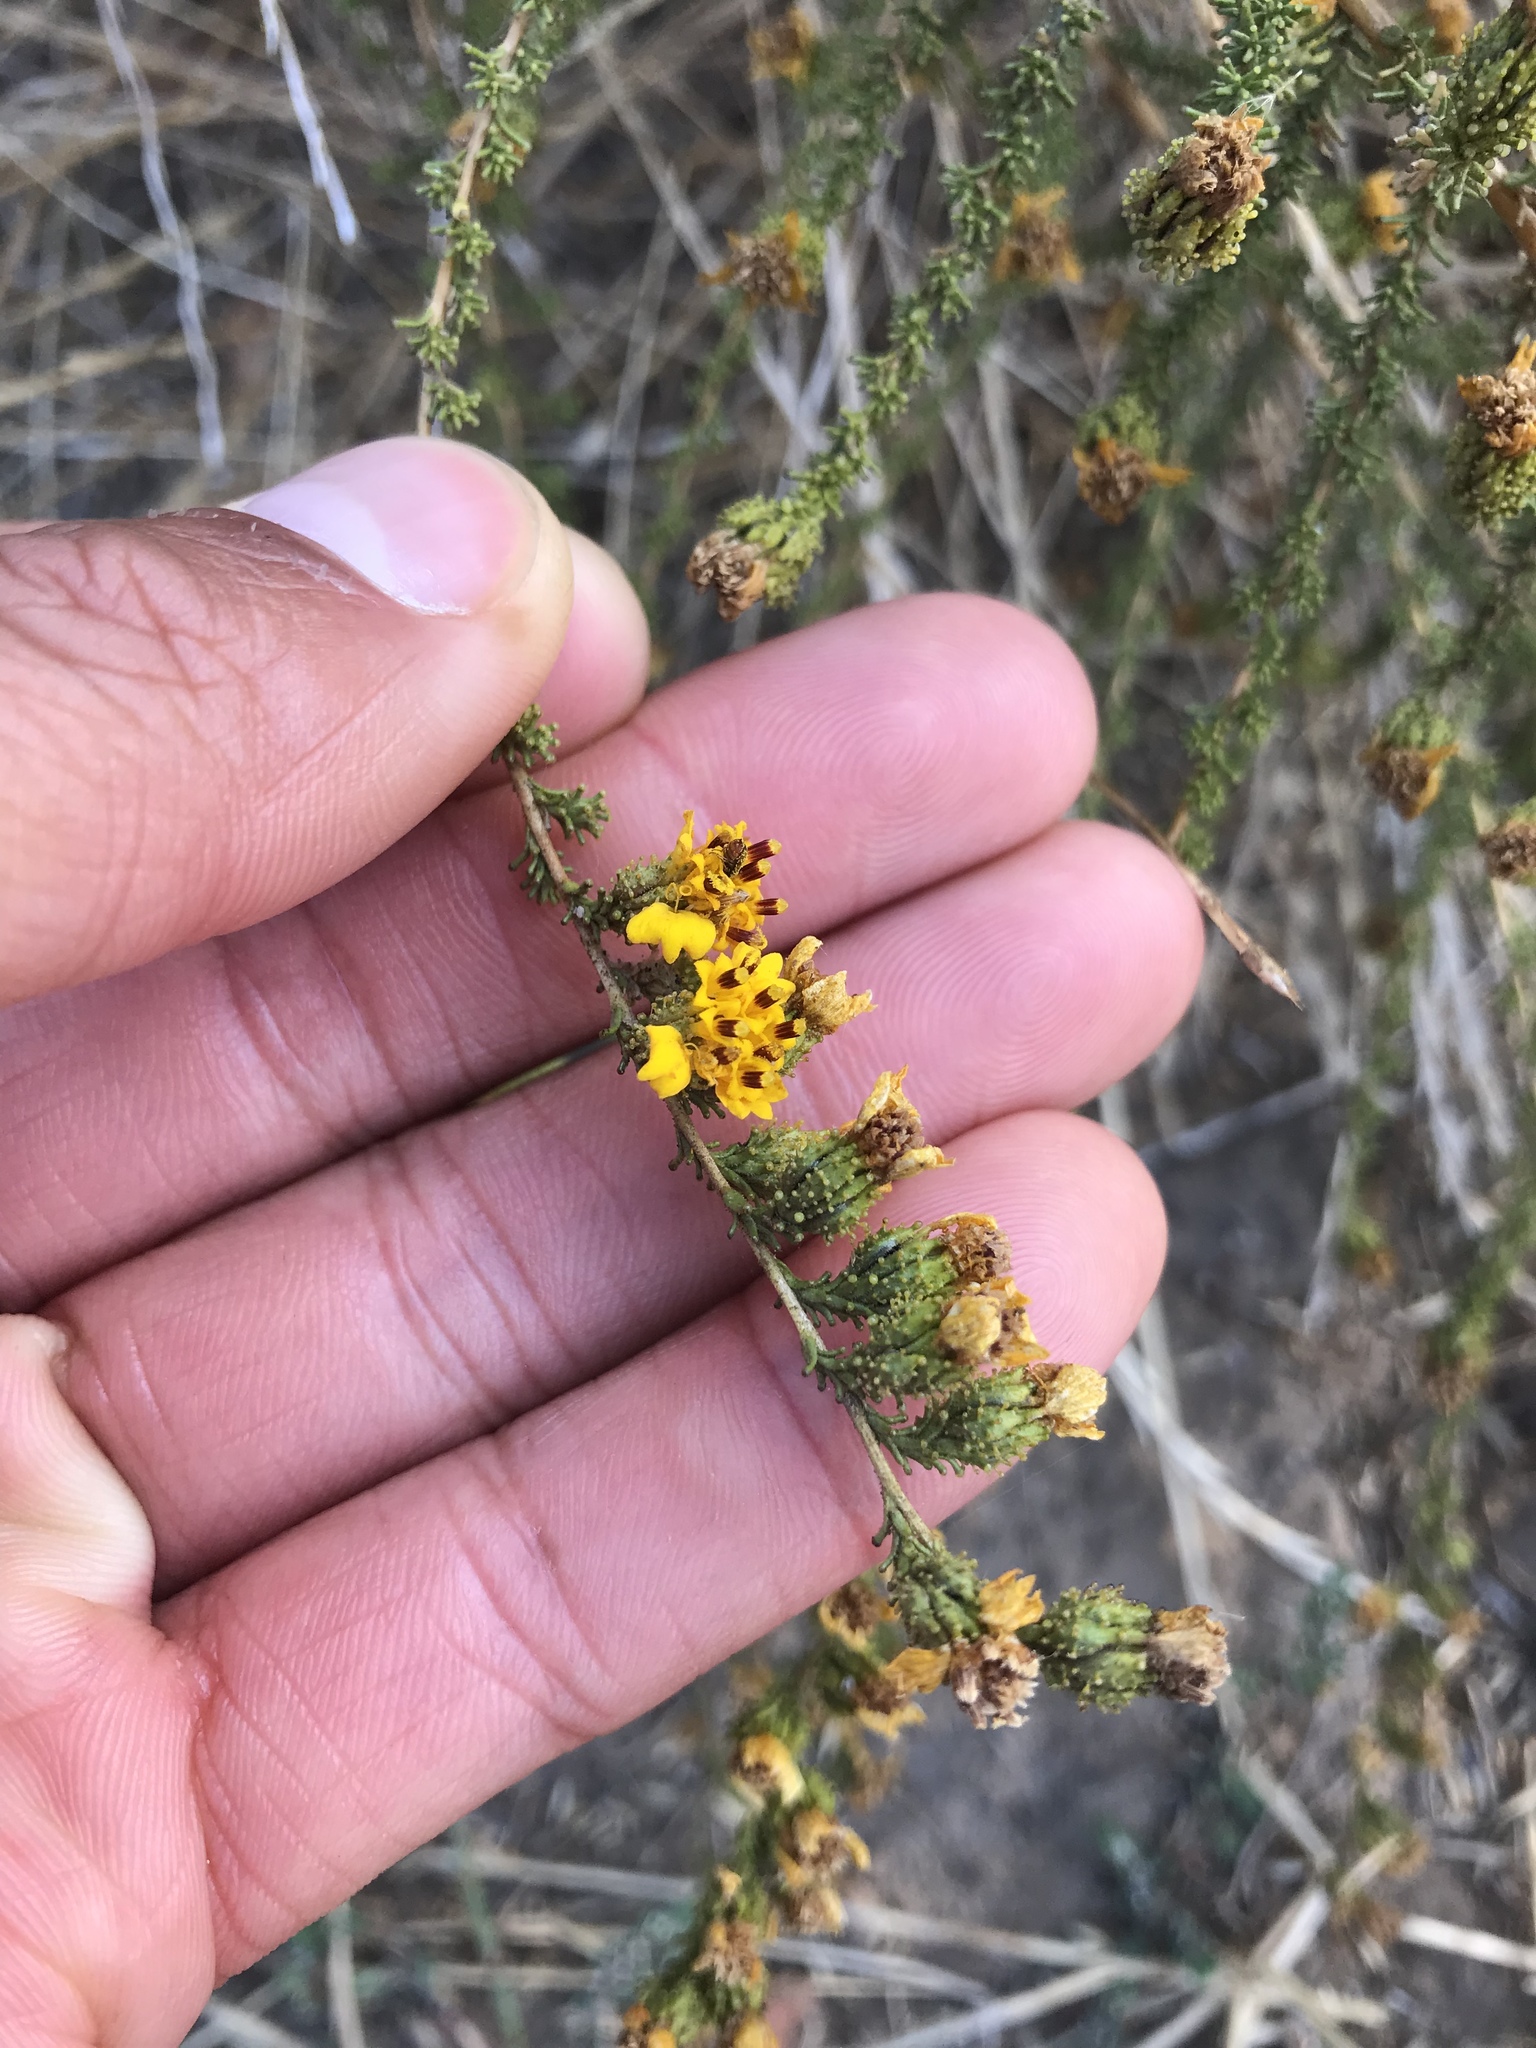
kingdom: Plantae
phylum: Tracheophyta
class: Magnoliopsida
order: Asterales
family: Asteraceae
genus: Holocarpha
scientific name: Holocarpha virgata
